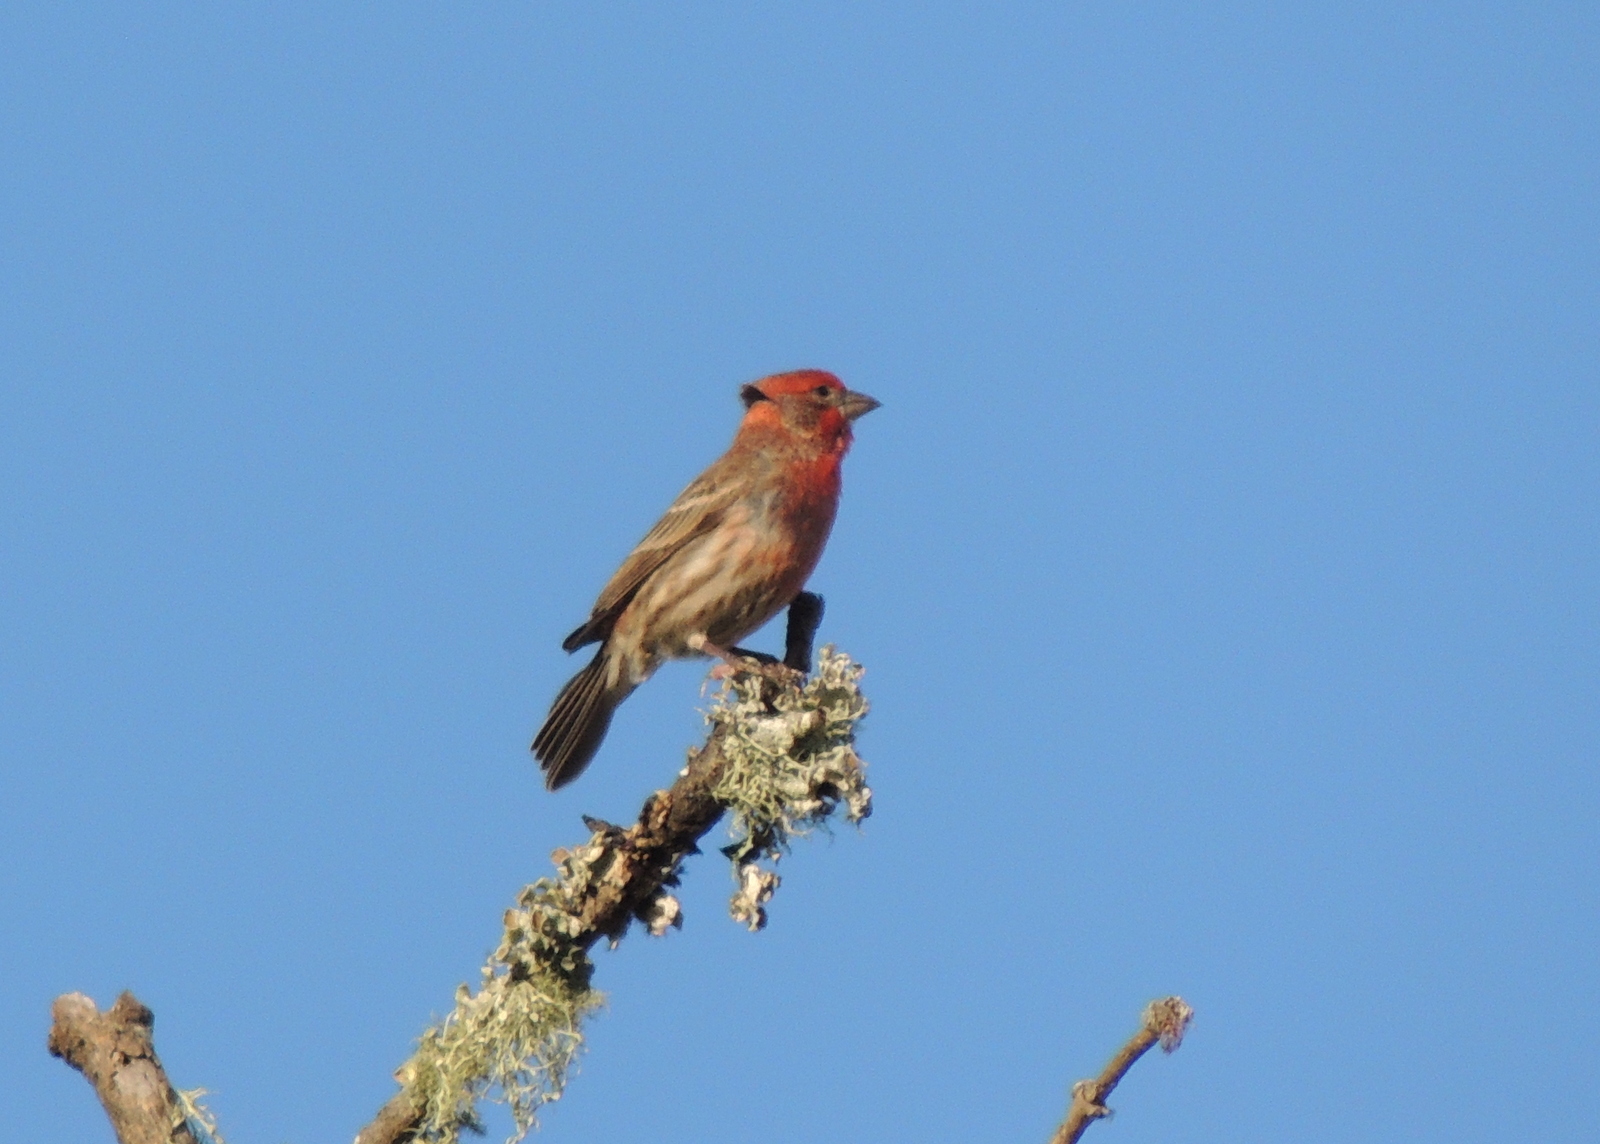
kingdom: Animalia
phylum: Chordata
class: Aves
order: Passeriformes
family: Fringillidae
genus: Haemorhous
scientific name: Haemorhous mexicanus
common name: House finch
